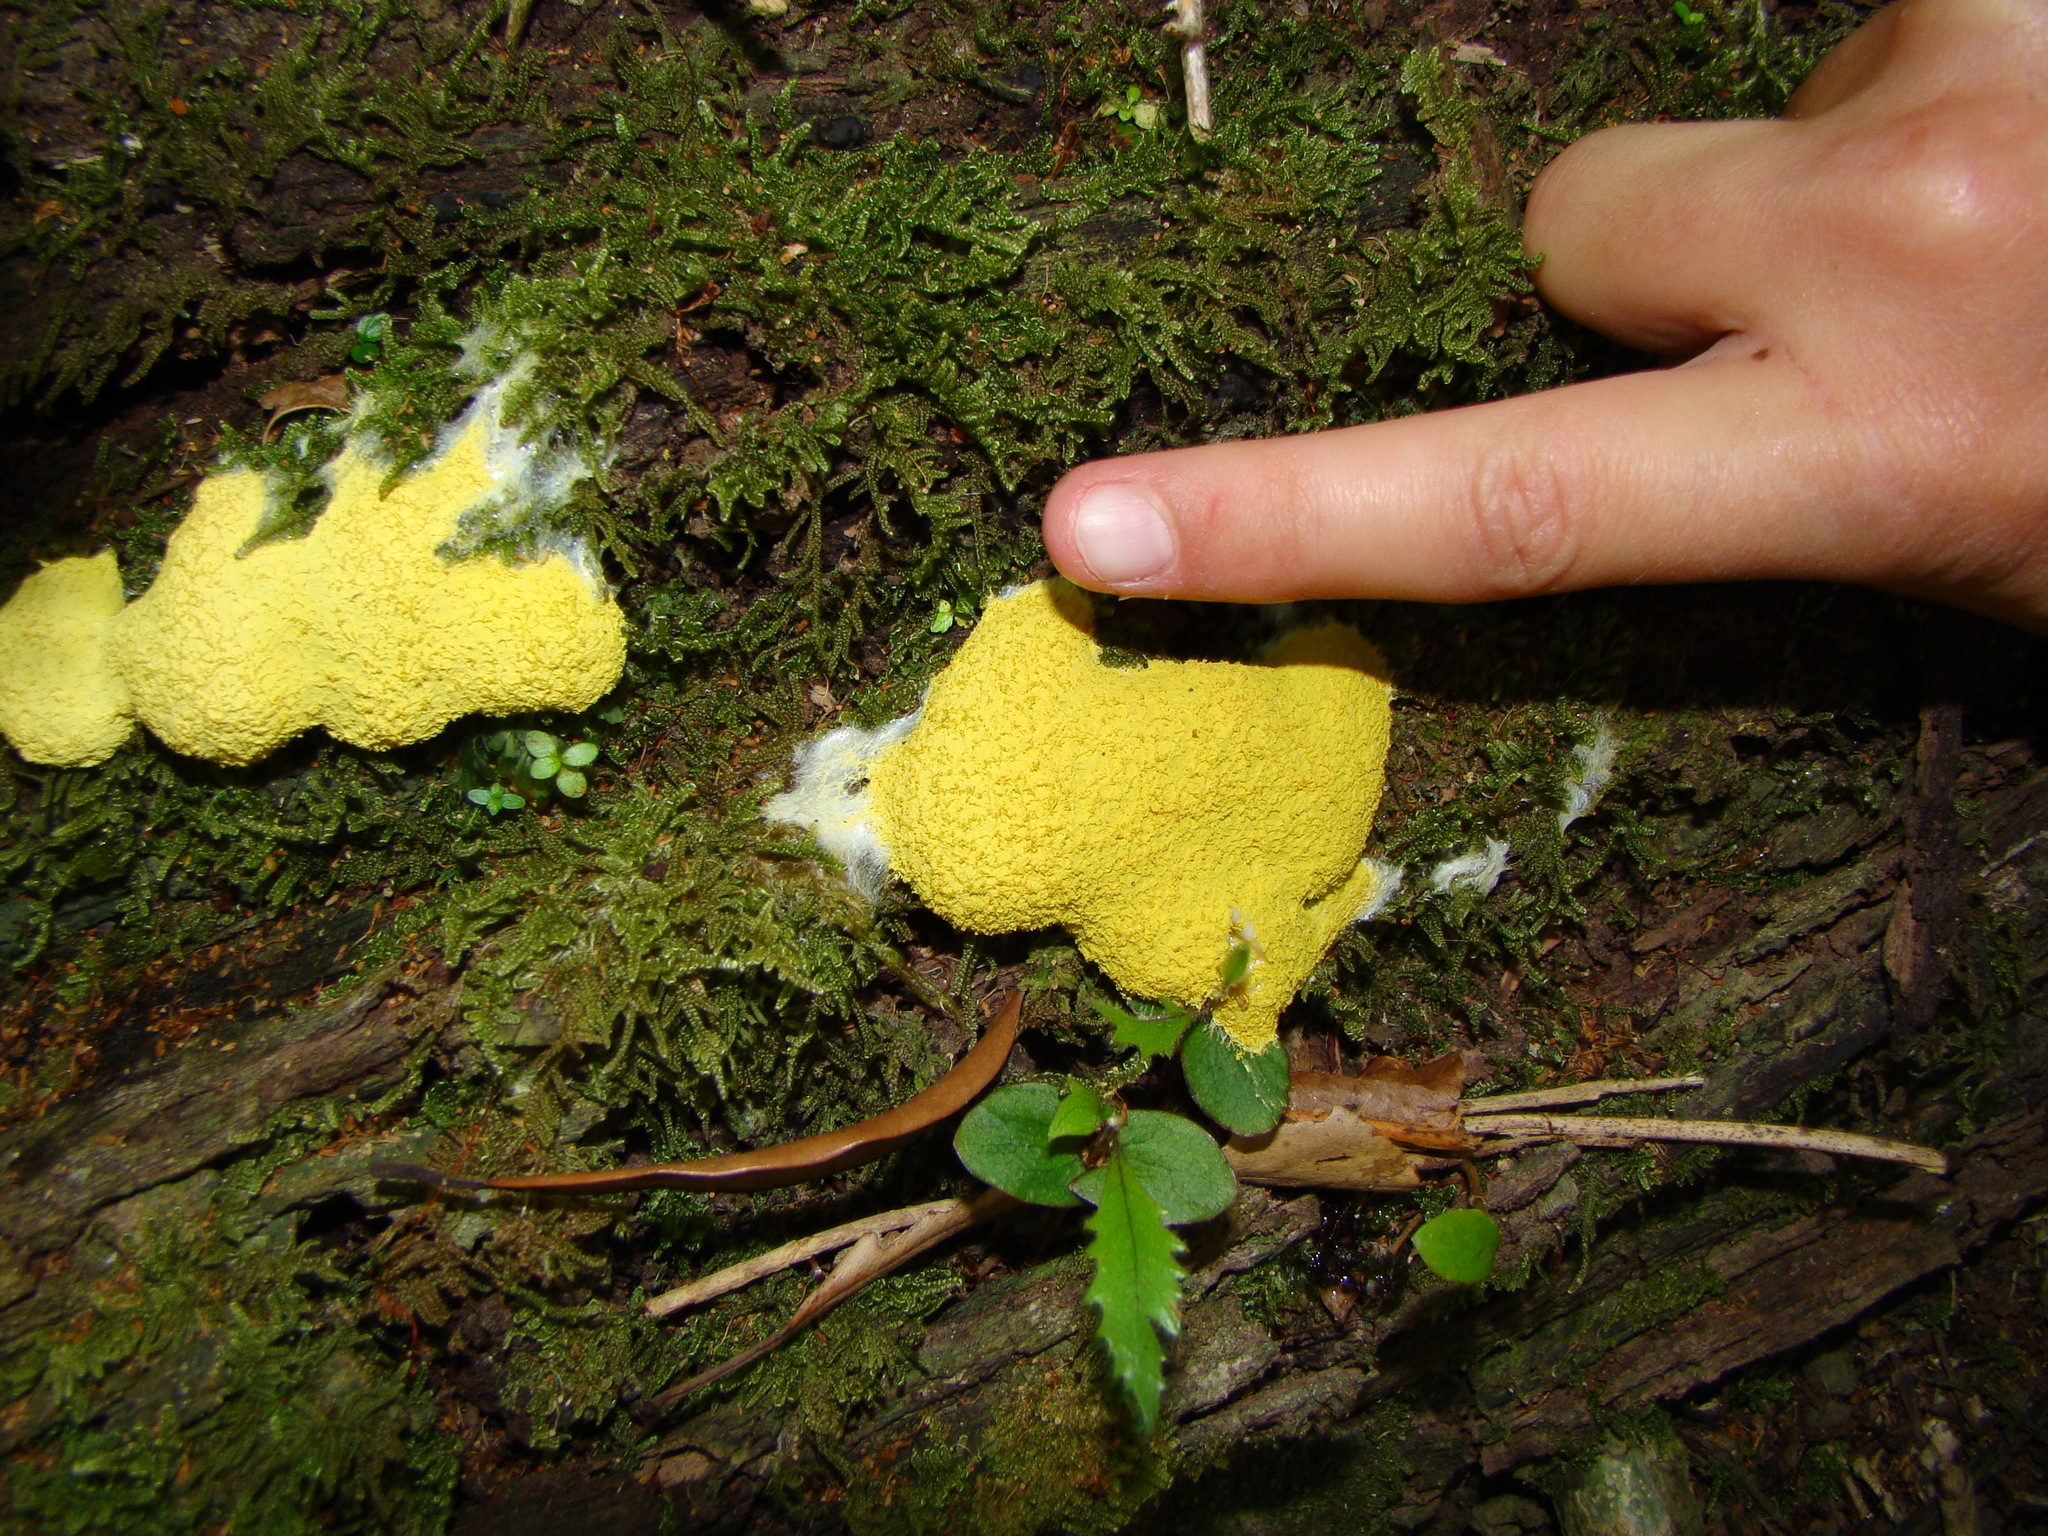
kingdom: Protozoa
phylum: Mycetozoa
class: Myxomycetes
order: Physarales
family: Physaraceae
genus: Fuligo
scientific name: Fuligo septica
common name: Dog vomit slime mold
